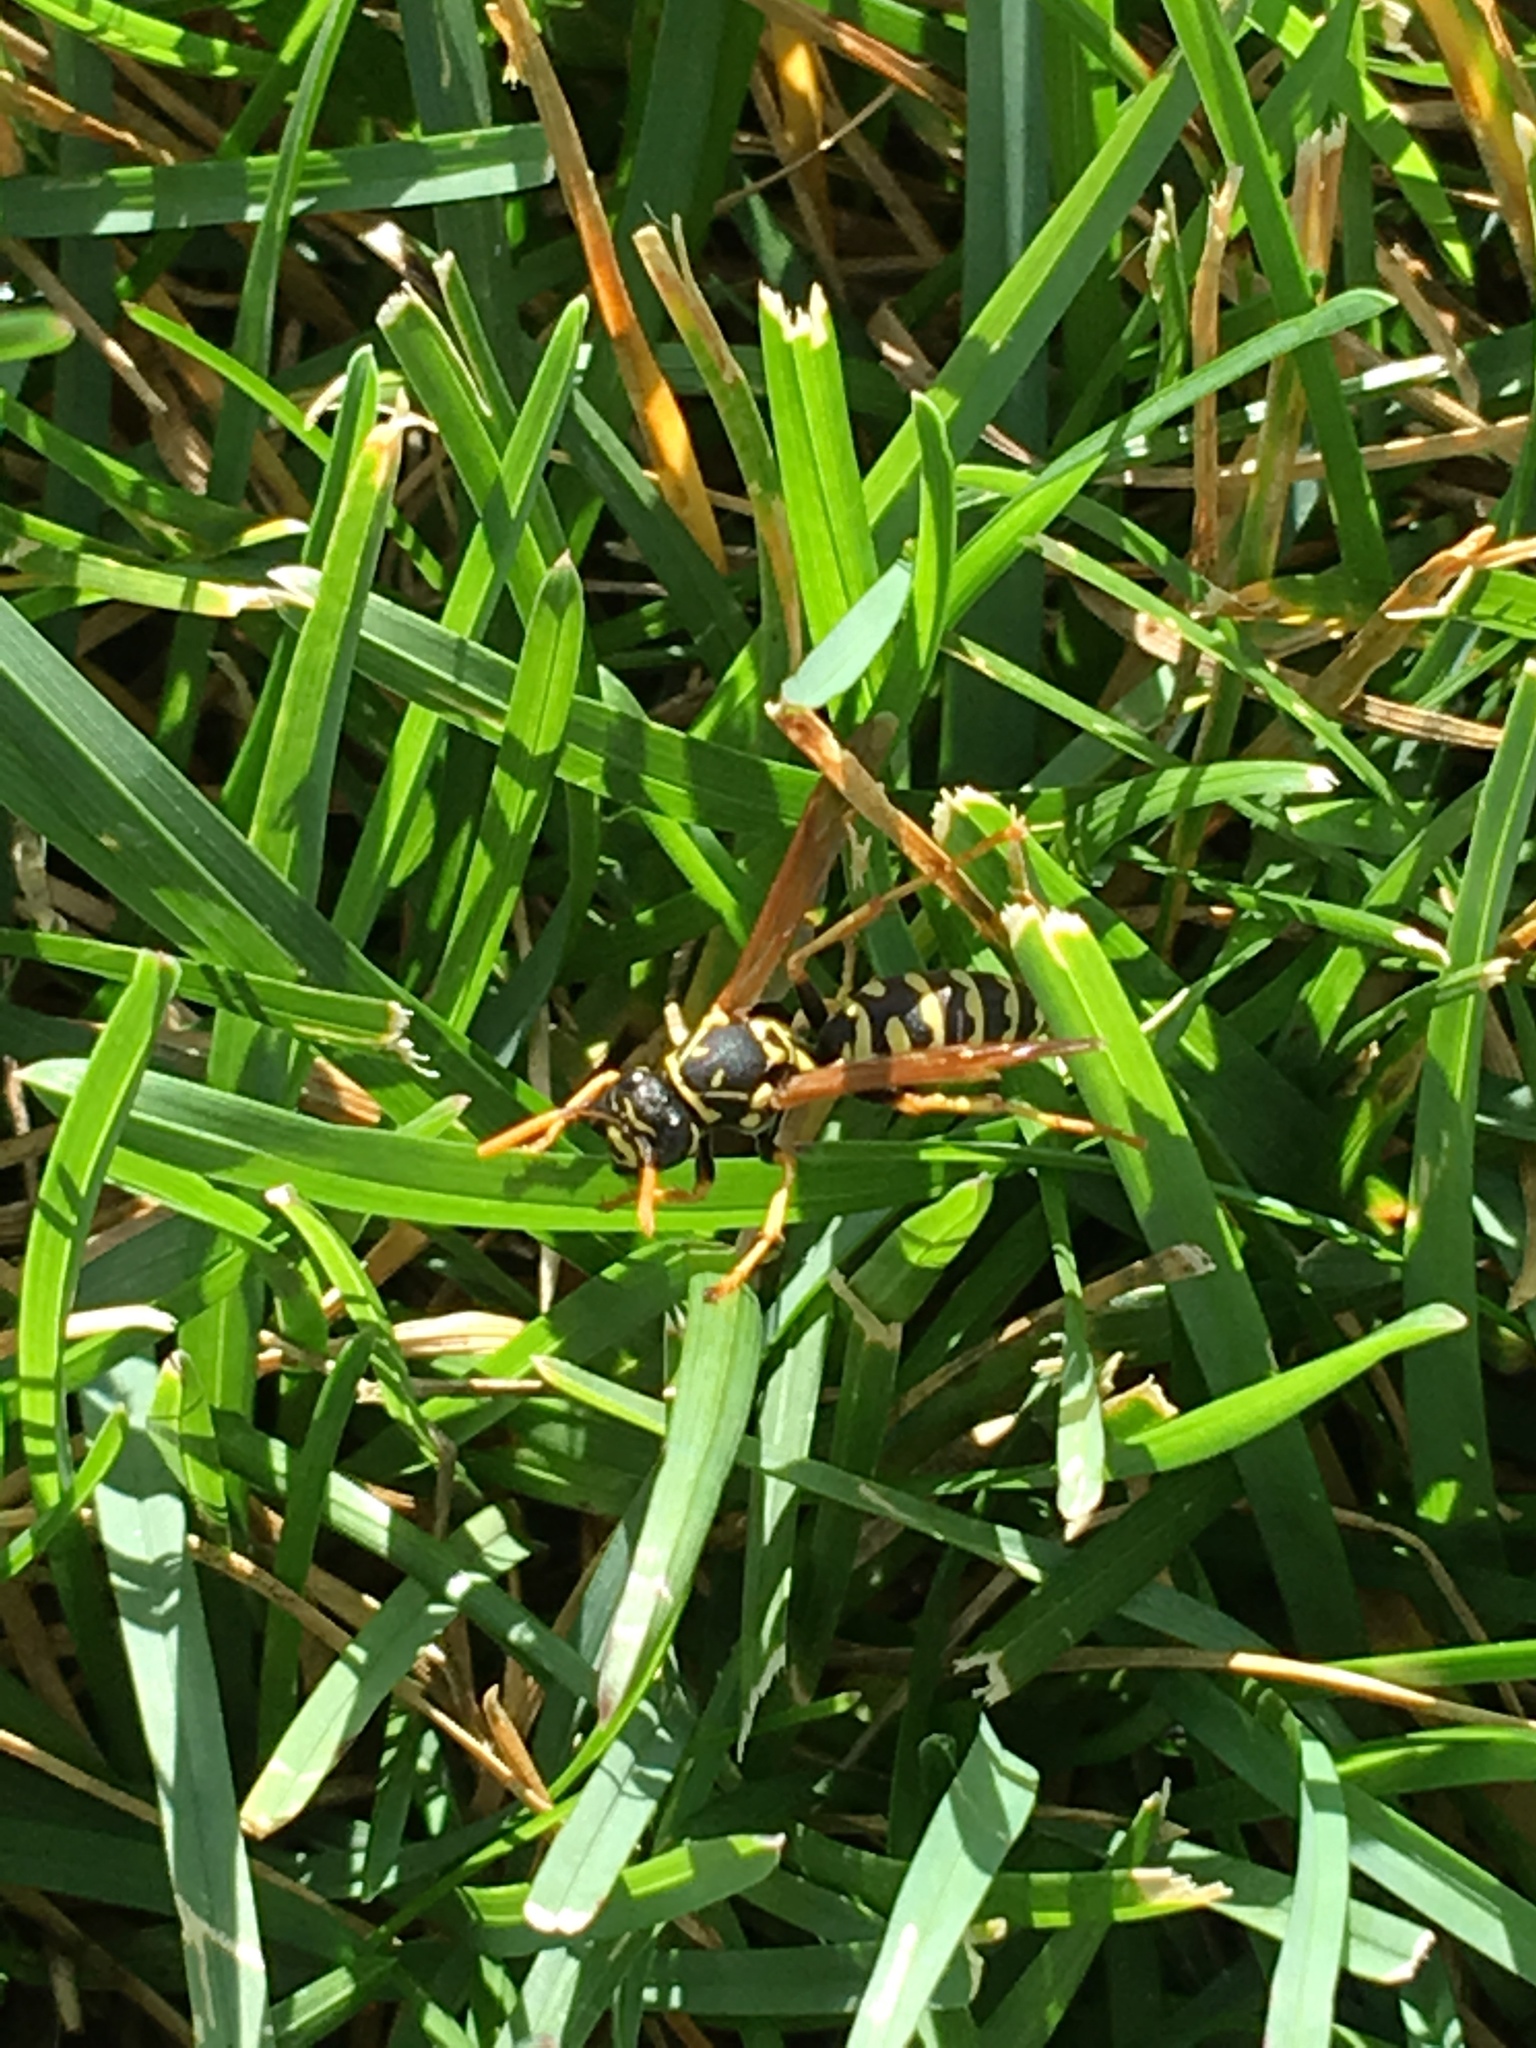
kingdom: Animalia
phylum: Arthropoda
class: Insecta
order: Hymenoptera
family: Eumenidae
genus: Polistes
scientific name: Polistes dominula
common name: Paper wasp
